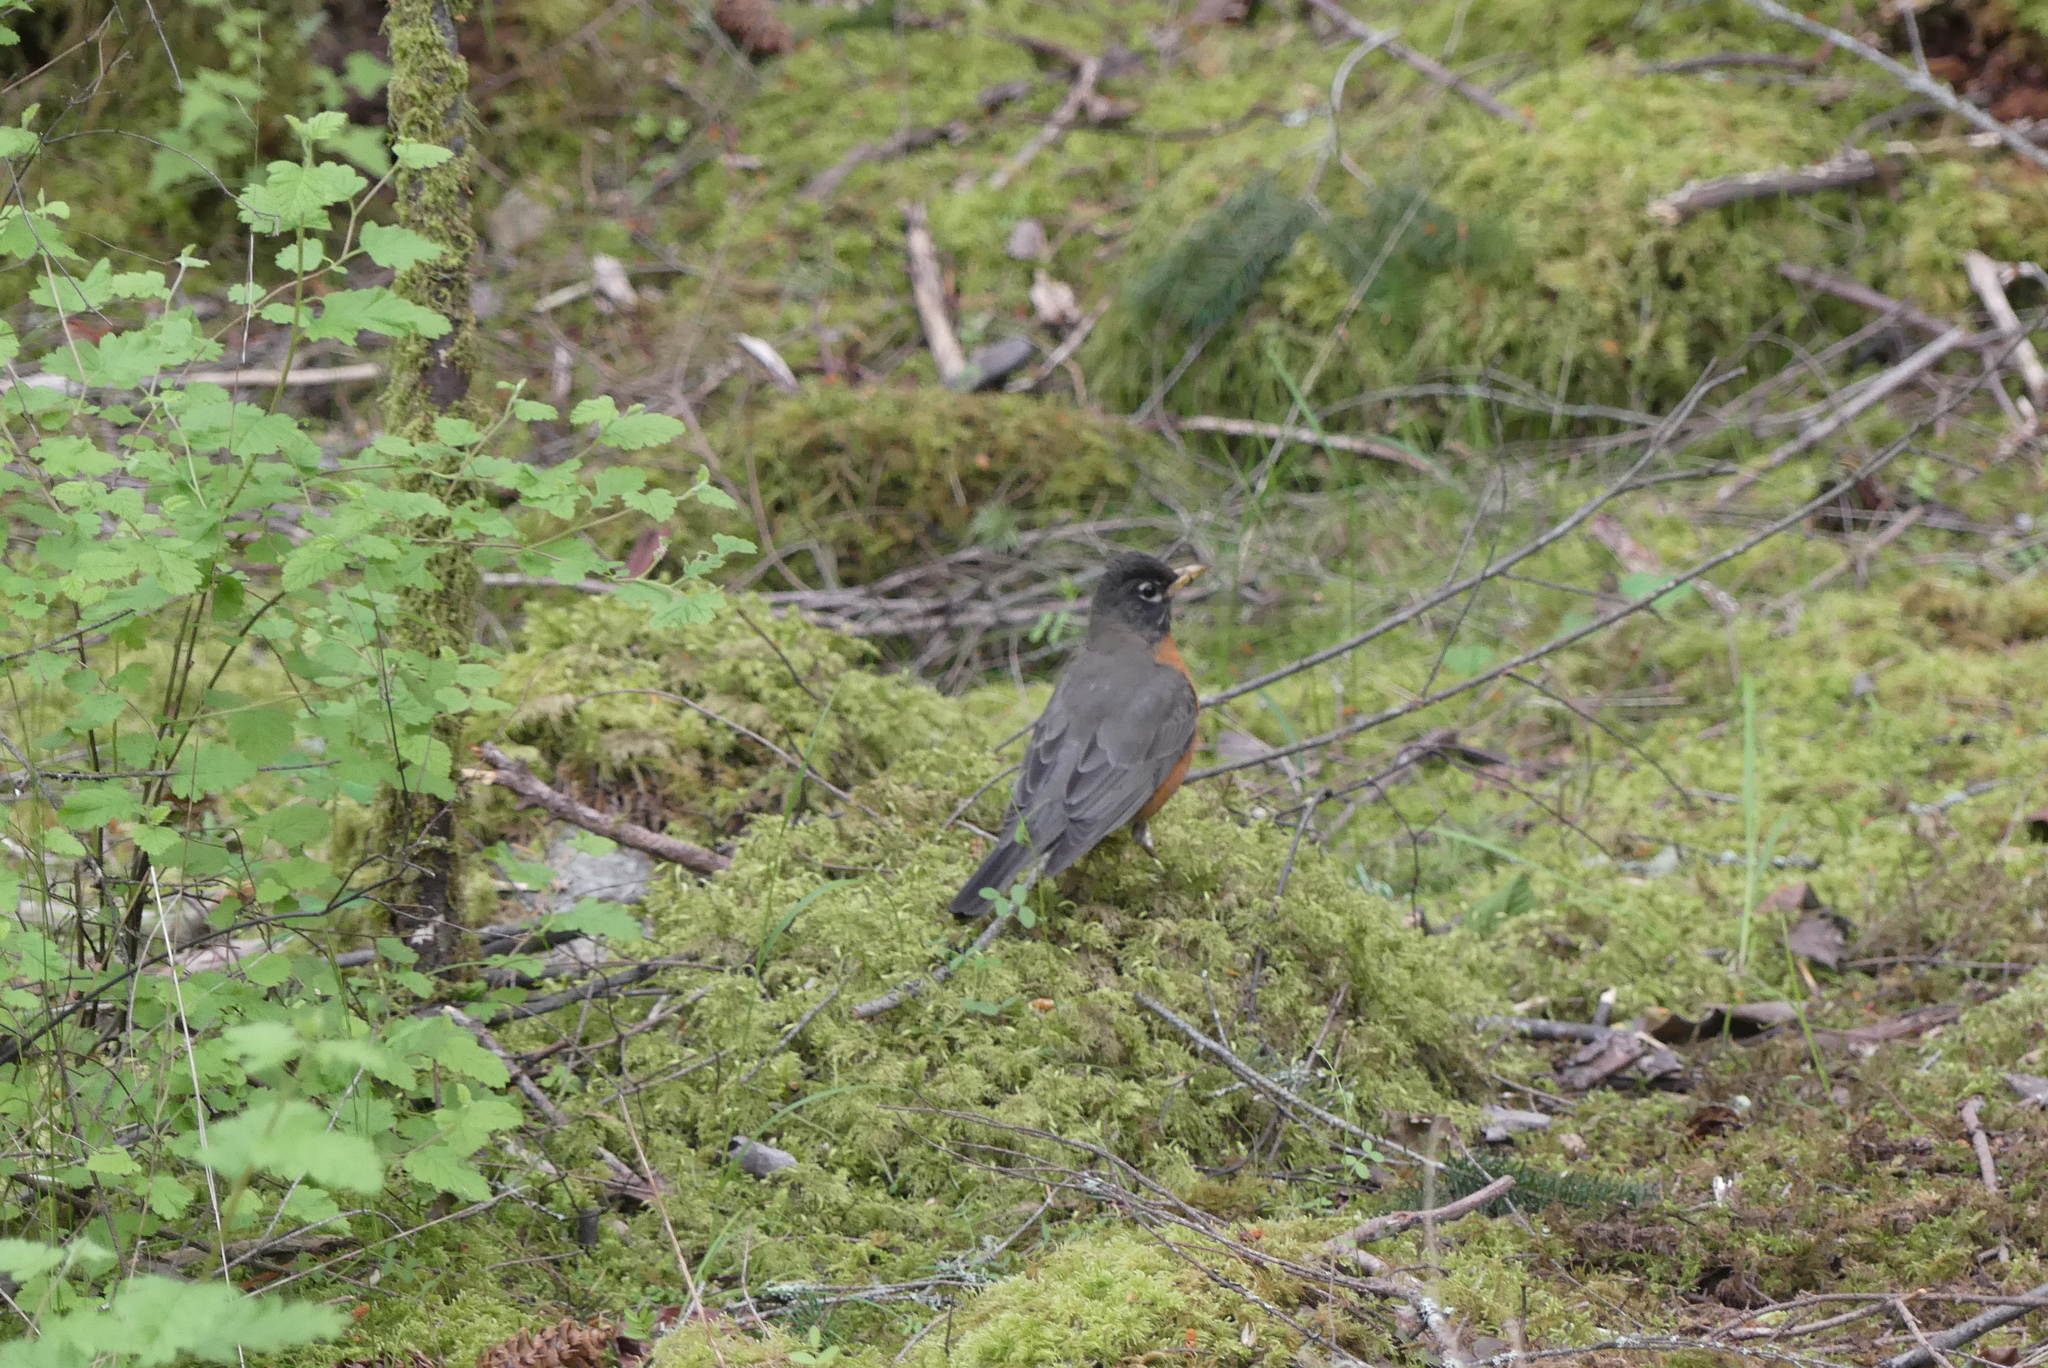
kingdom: Animalia
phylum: Chordata
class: Aves
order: Passeriformes
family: Turdidae
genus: Turdus
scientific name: Turdus migratorius
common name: American robin
